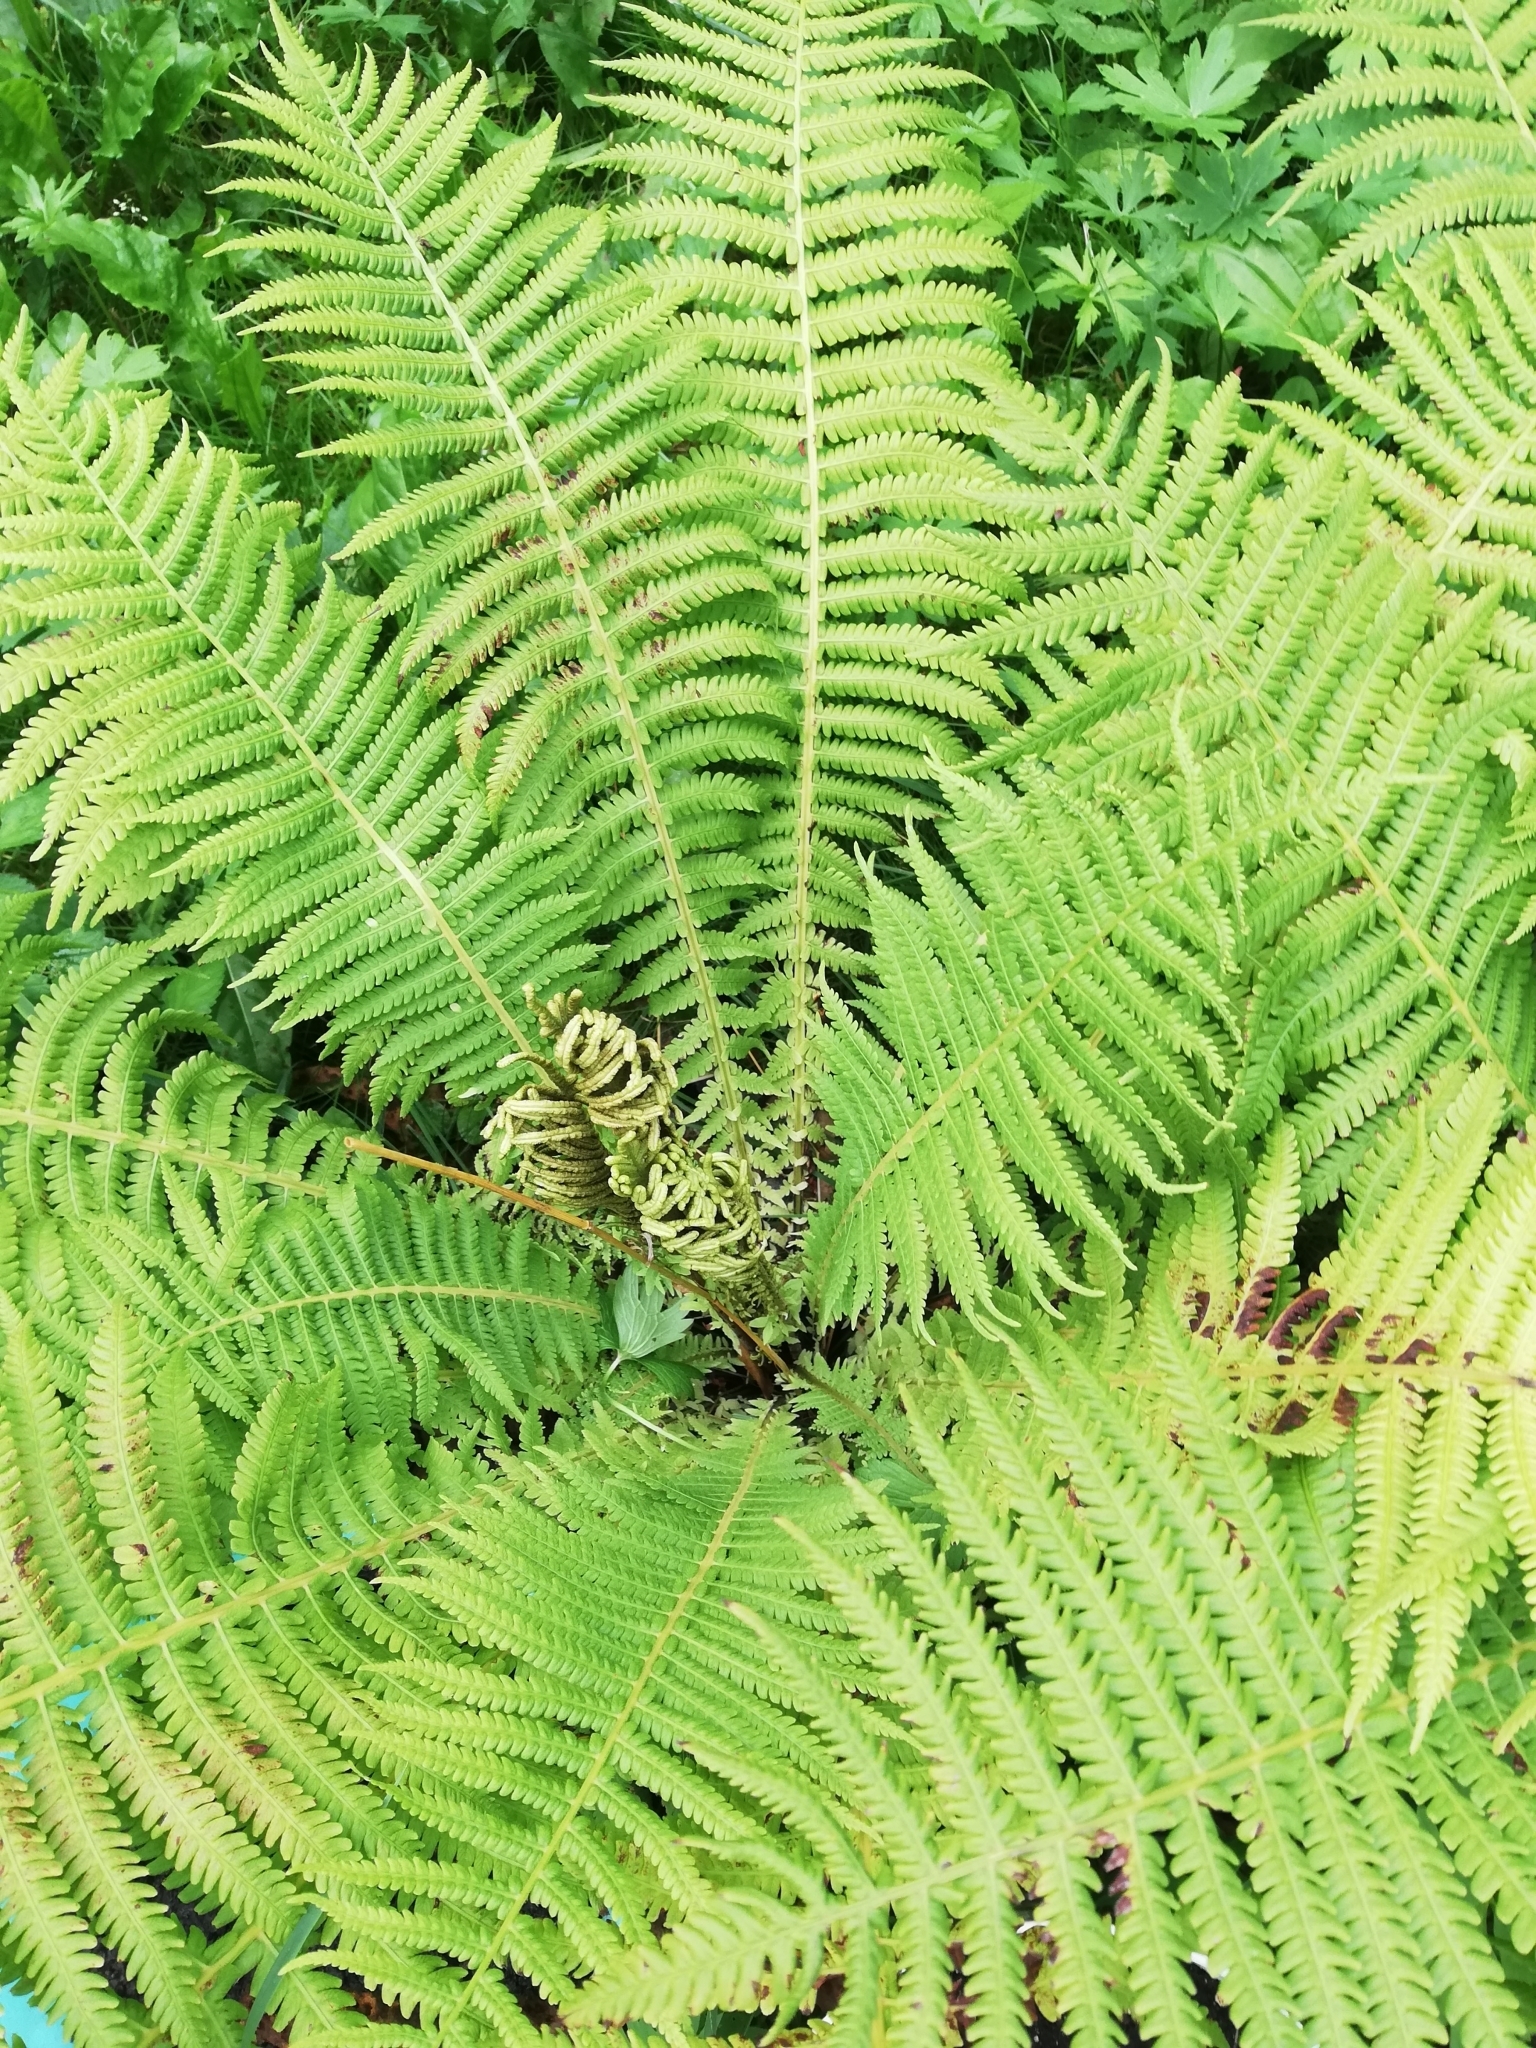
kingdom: Plantae
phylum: Tracheophyta
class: Polypodiopsida
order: Polypodiales
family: Onocleaceae
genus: Matteuccia
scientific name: Matteuccia struthiopteris
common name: Ostrich fern
